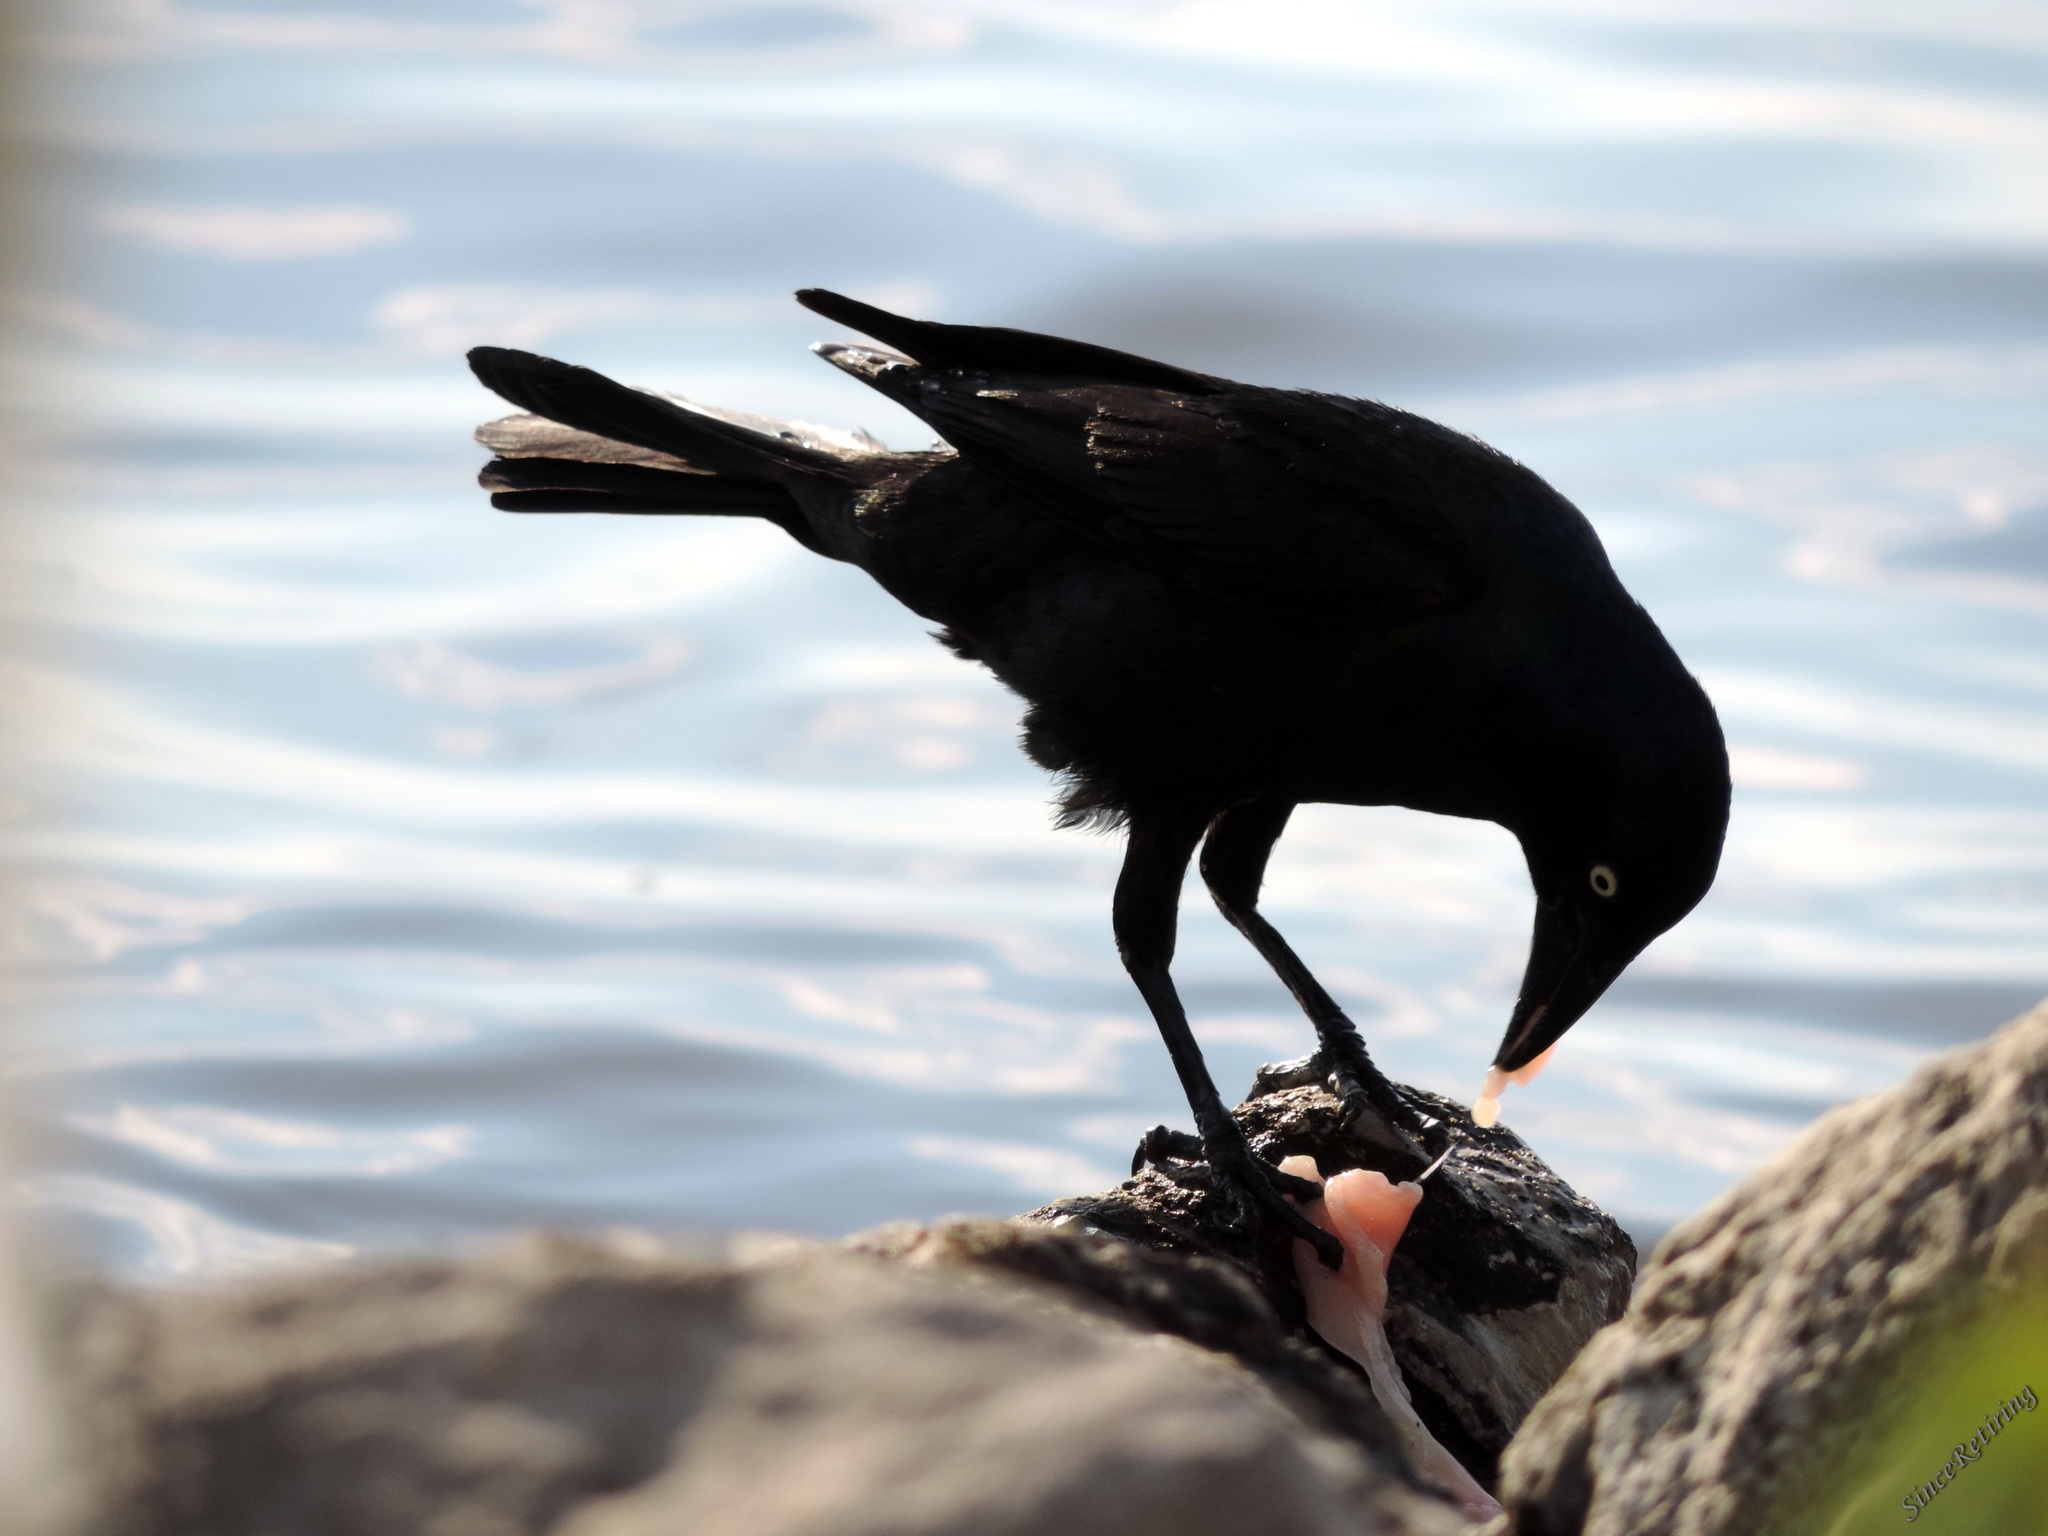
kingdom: Animalia
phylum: Chordata
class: Aves
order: Passeriformes
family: Icteridae
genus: Quiscalus
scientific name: Quiscalus quiscula
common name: Common grackle
